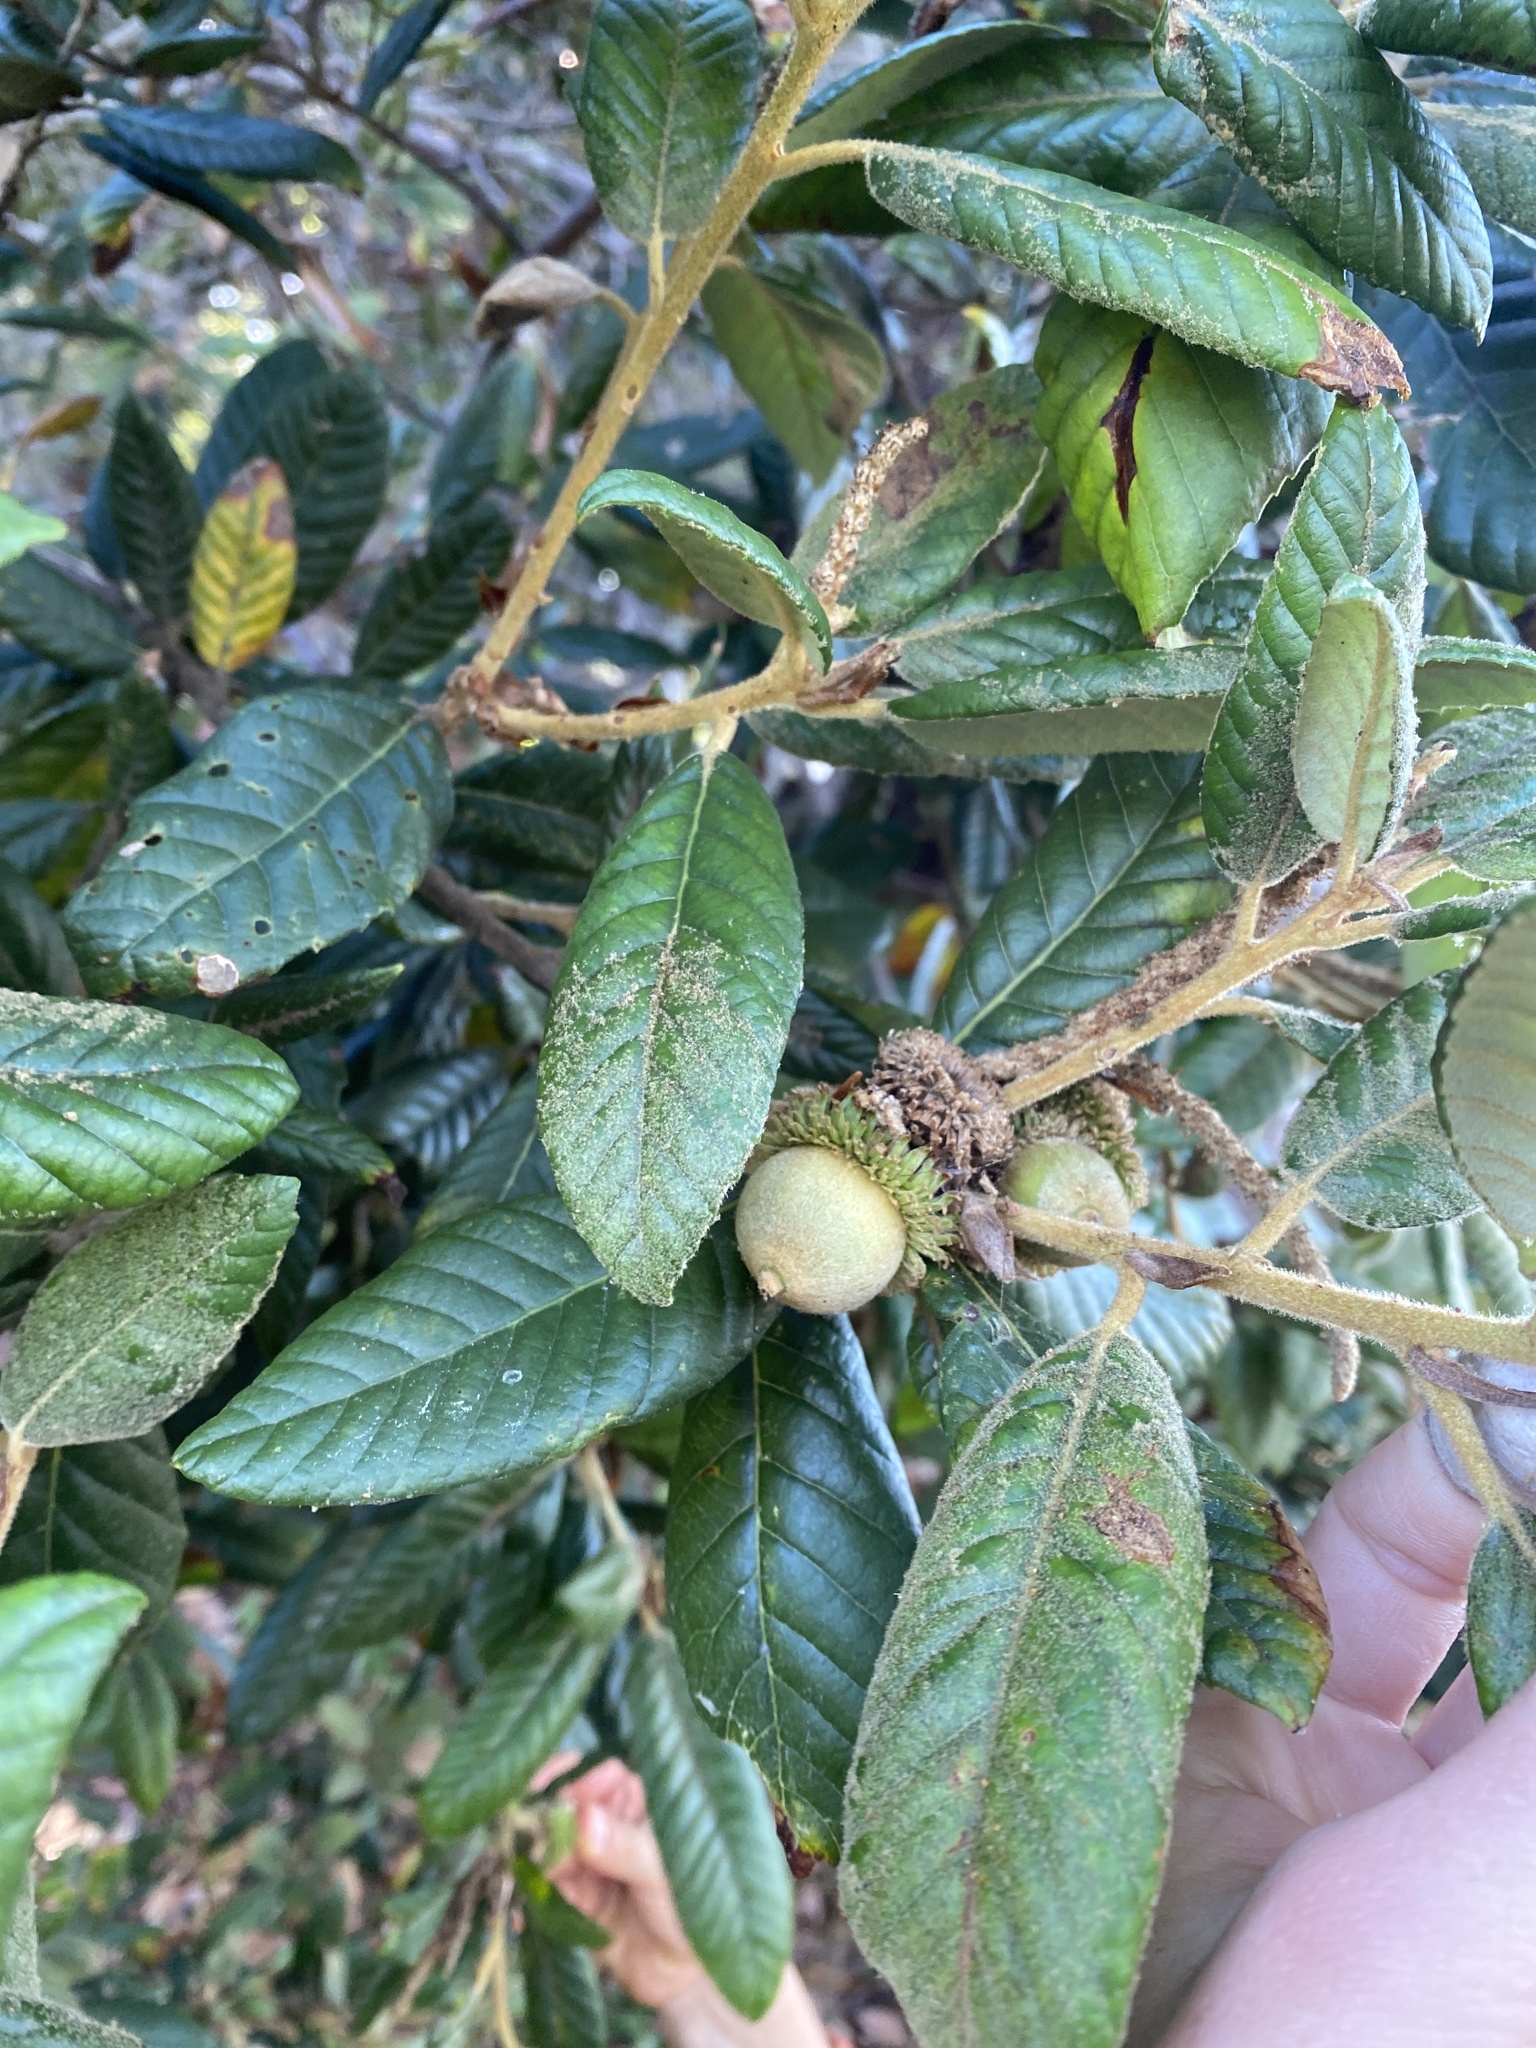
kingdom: Plantae
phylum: Tracheophyta
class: Magnoliopsida
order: Fagales
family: Fagaceae
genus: Notholithocarpus
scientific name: Notholithocarpus densiflorus
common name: Tan bark oak
